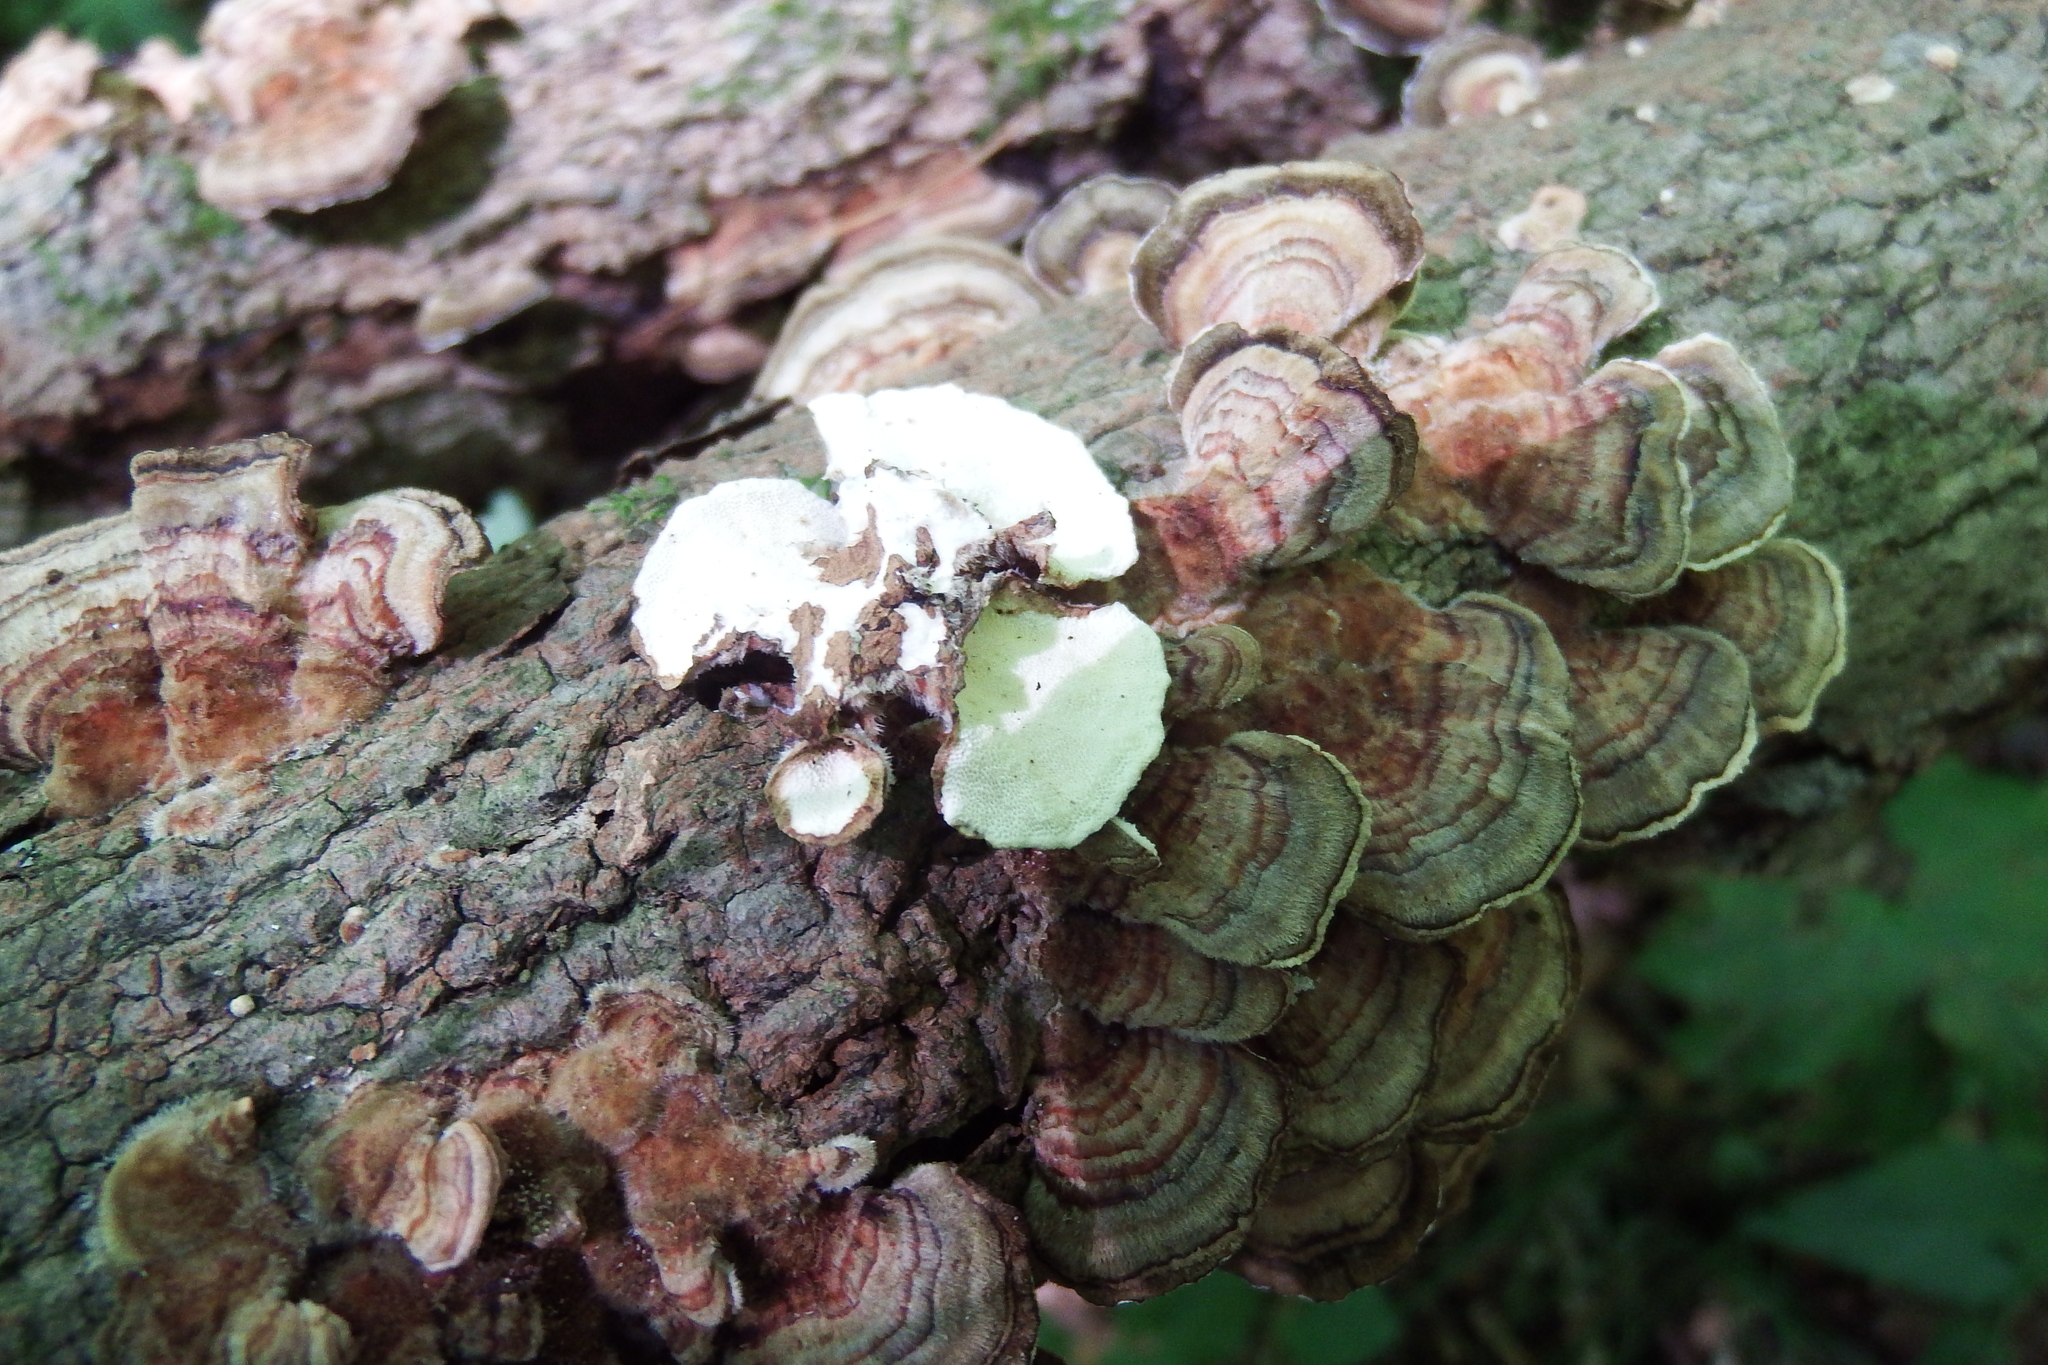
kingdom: Fungi
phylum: Basidiomycota
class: Agaricomycetes
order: Polyporales
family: Polyporaceae
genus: Trametes
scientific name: Trametes versicolor
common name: Turkeytail
